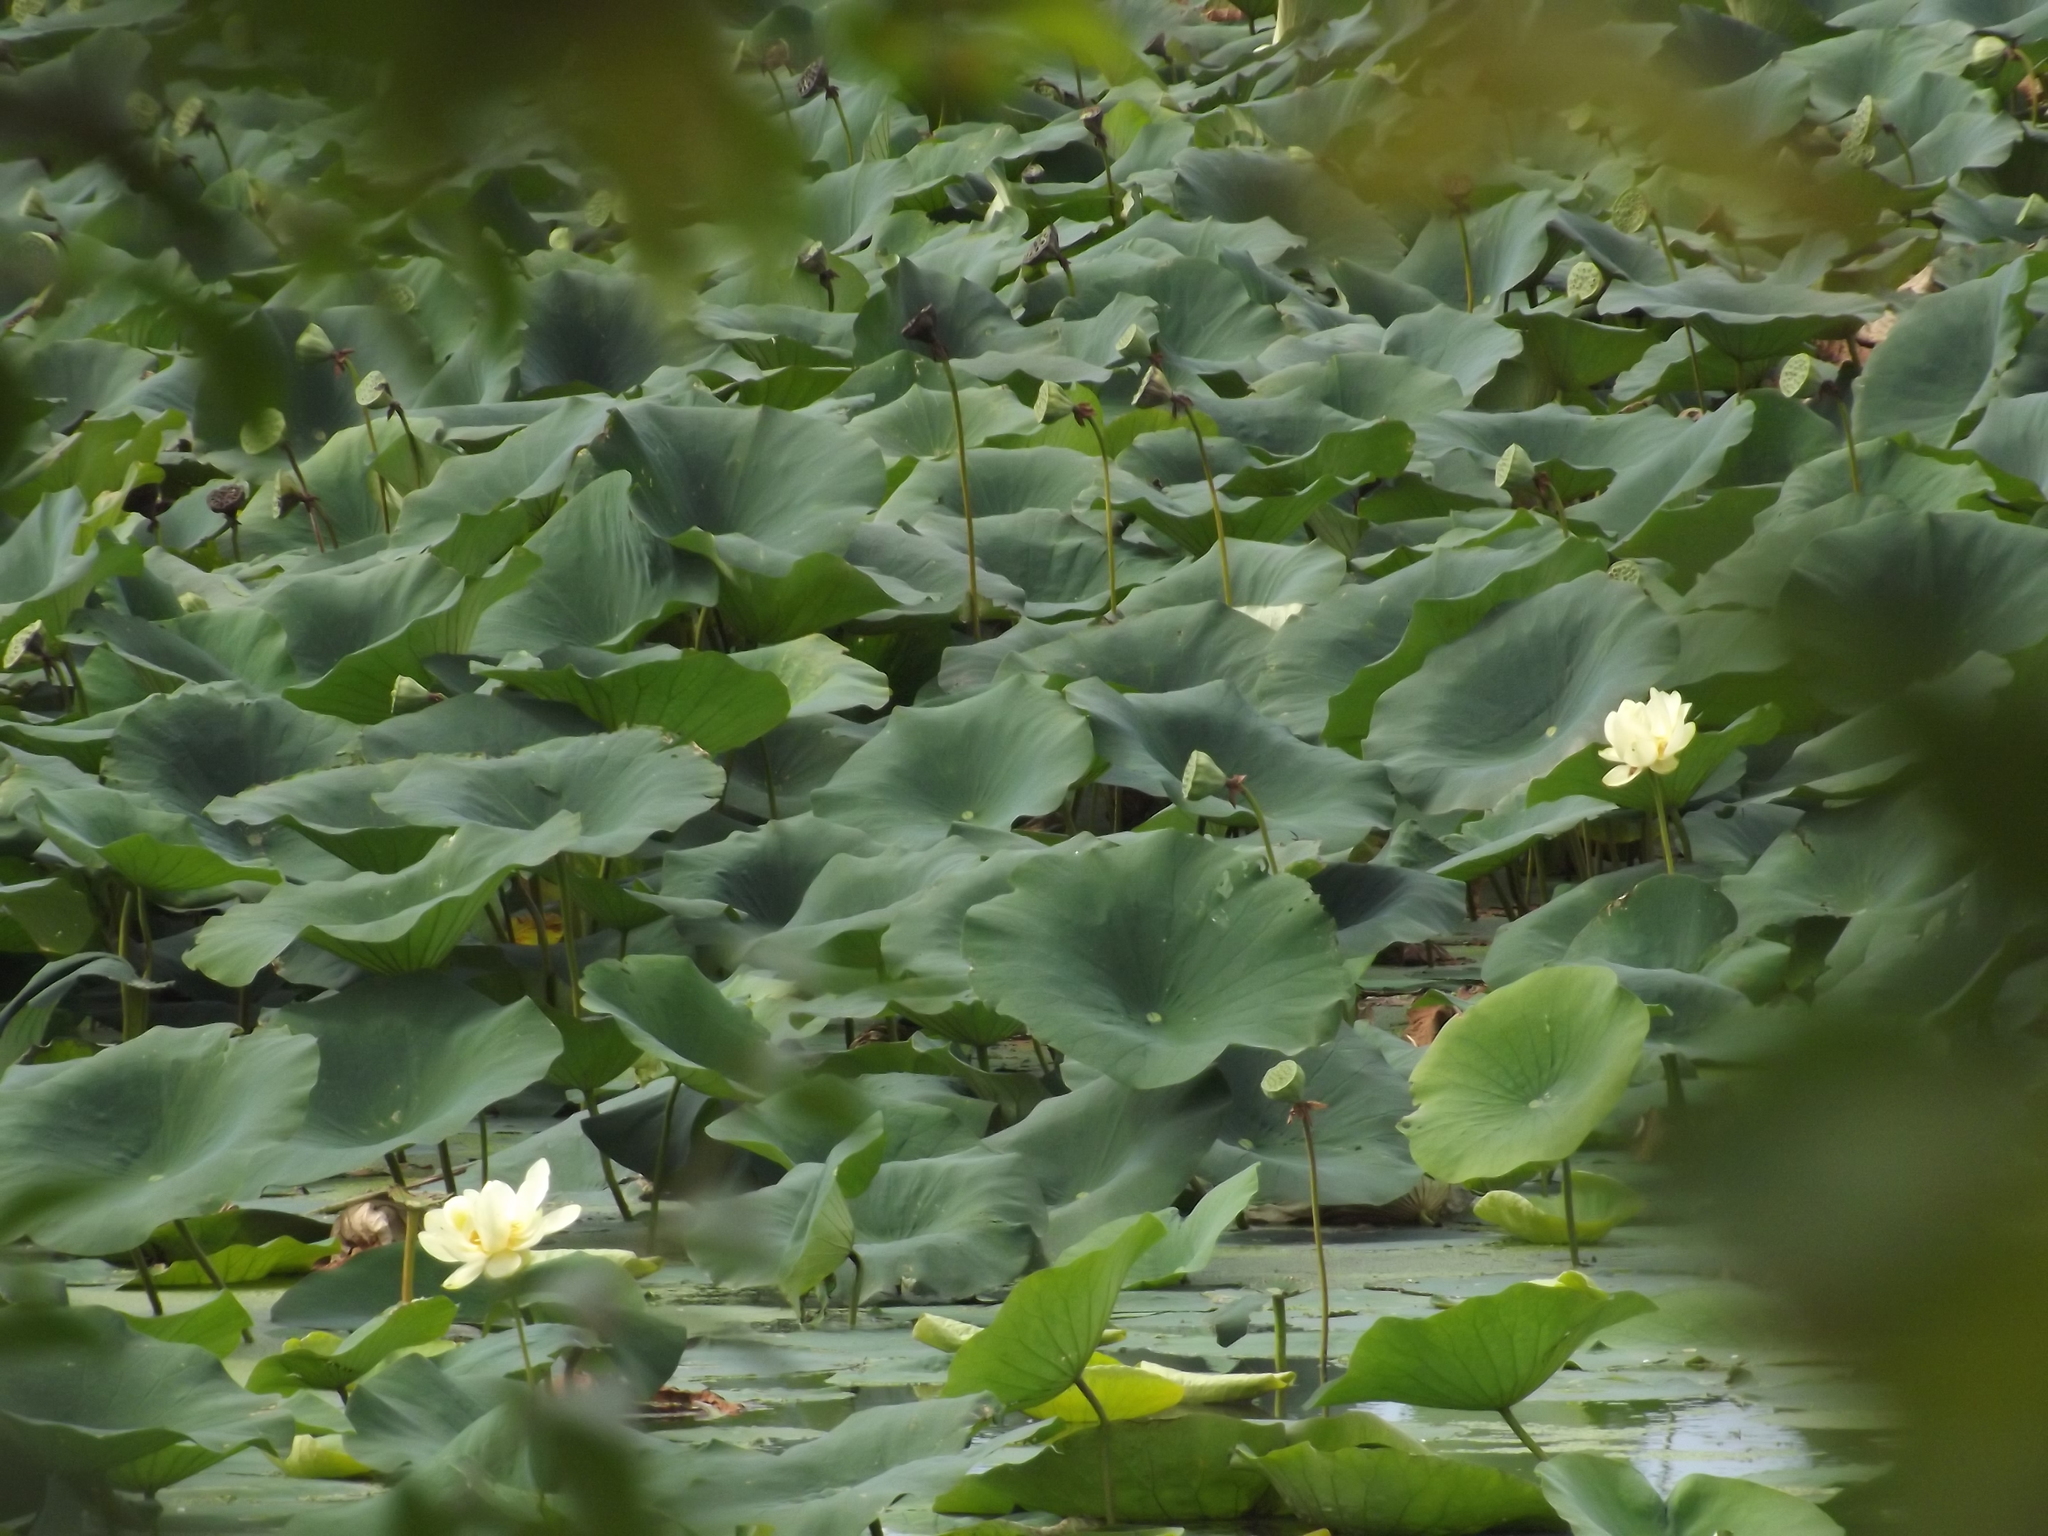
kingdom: Plantae
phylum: Tracheophyta
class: Magnoliopsida
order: Proteales
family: Nelumbonaceae
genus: Nelumbo
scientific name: Nelumbo lutea
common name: American lotus
